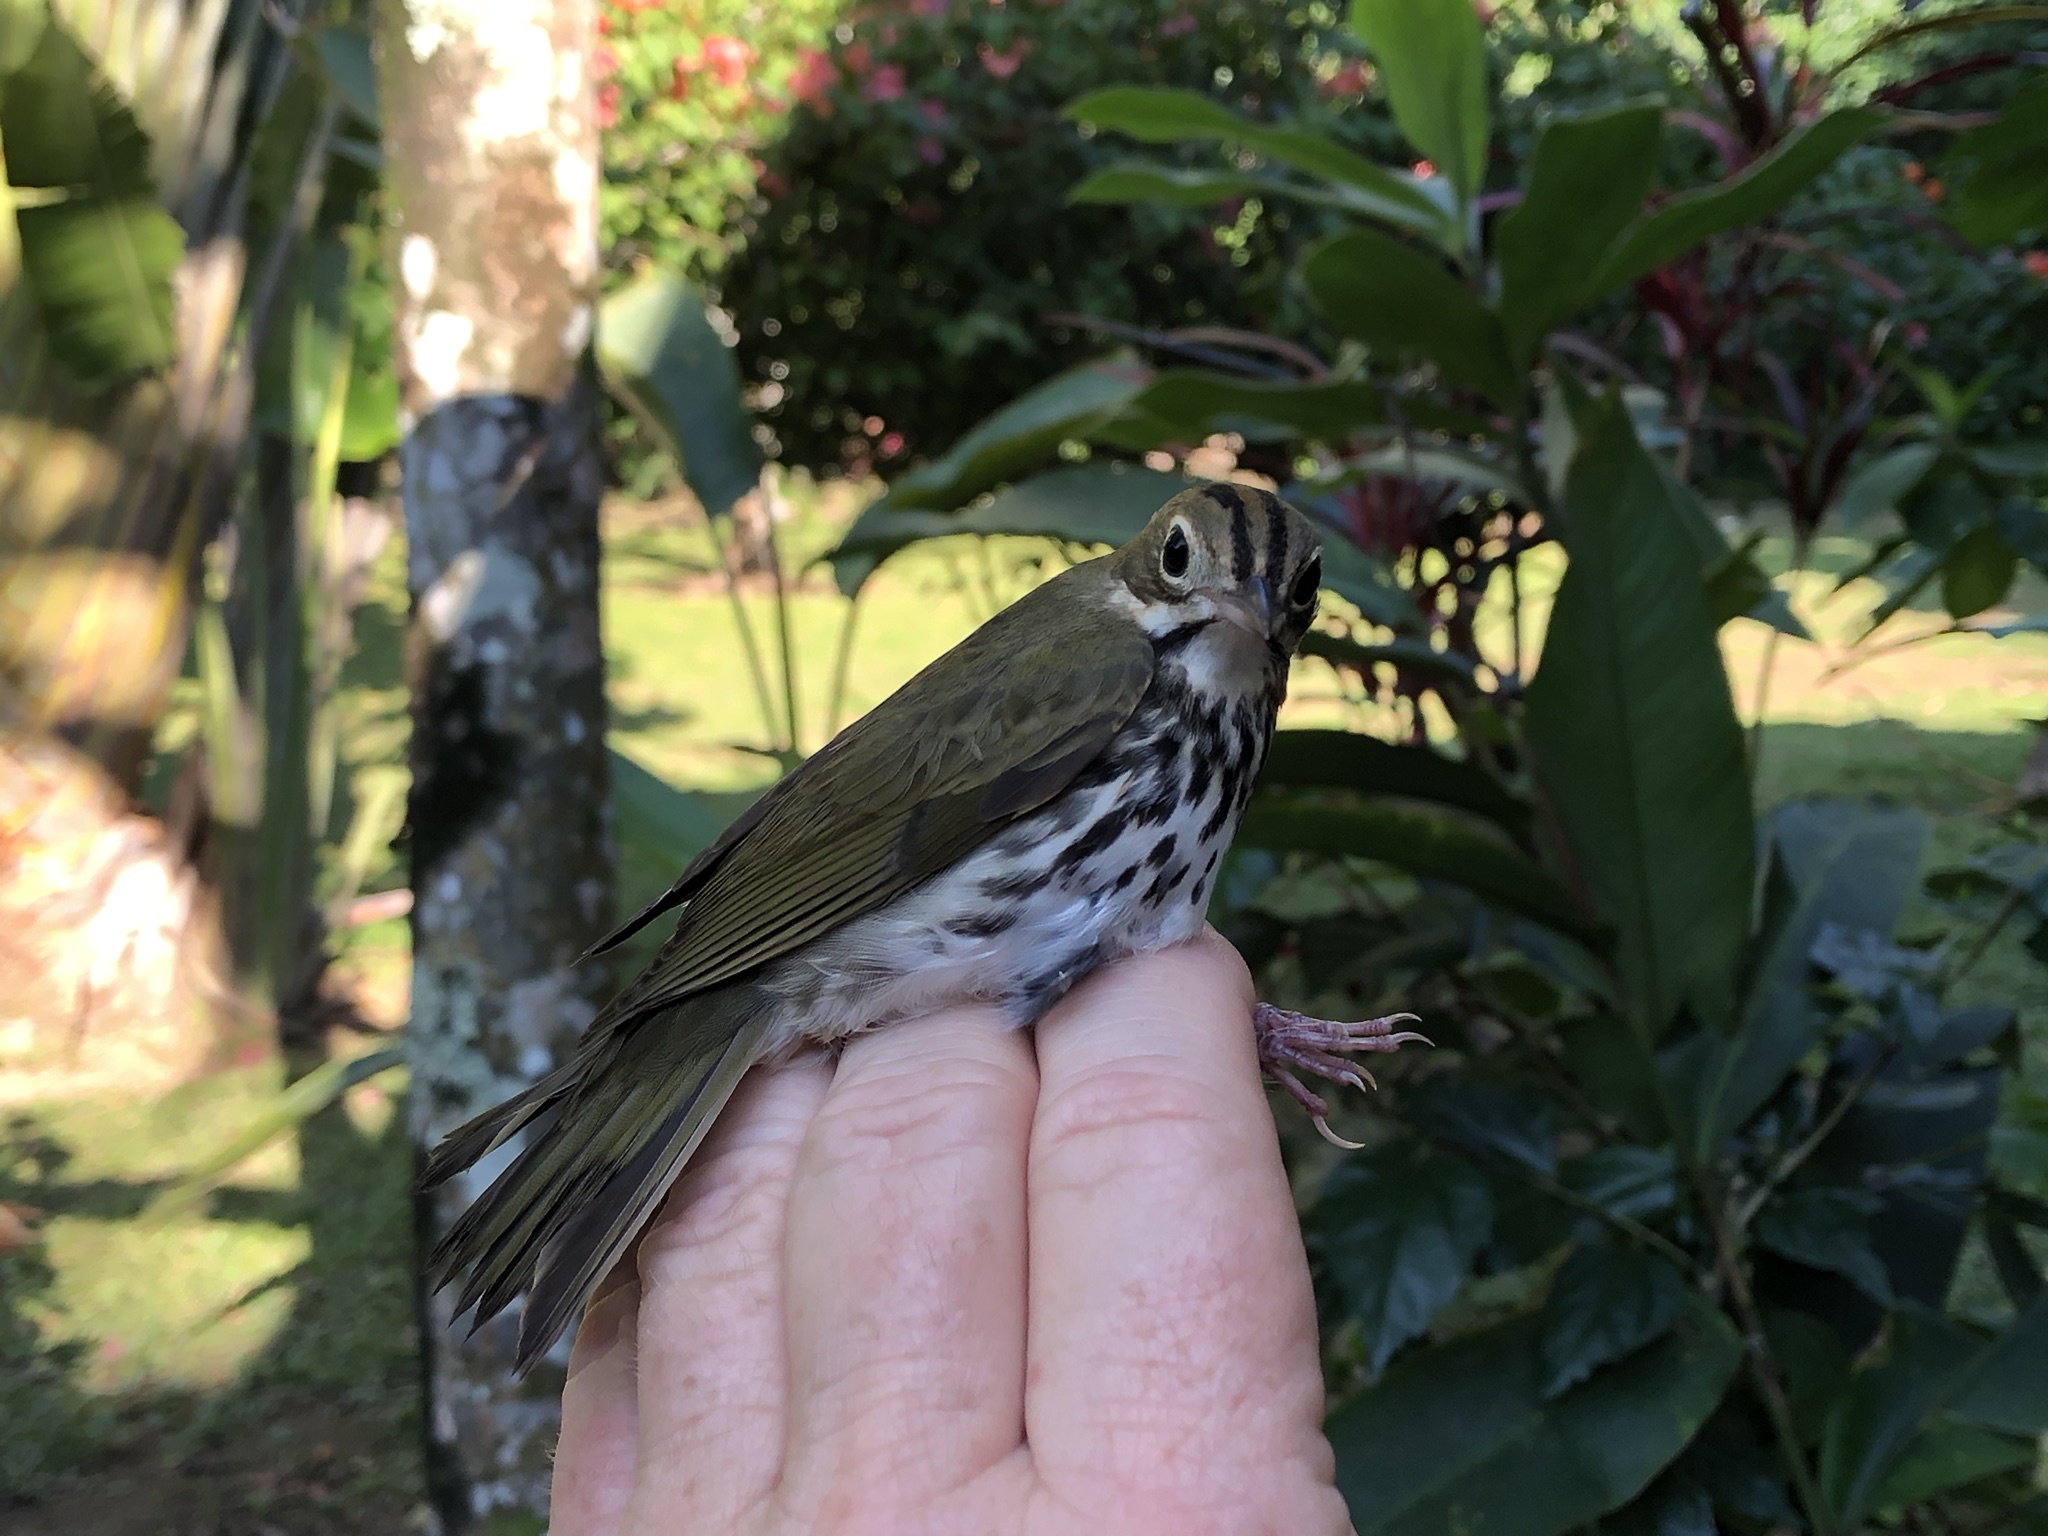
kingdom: Animalia
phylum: Chordata
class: Aves
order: Passeriformes
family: Parulidae
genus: Seiurus
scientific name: Seiurus aurocapilla
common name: Ovenbird
